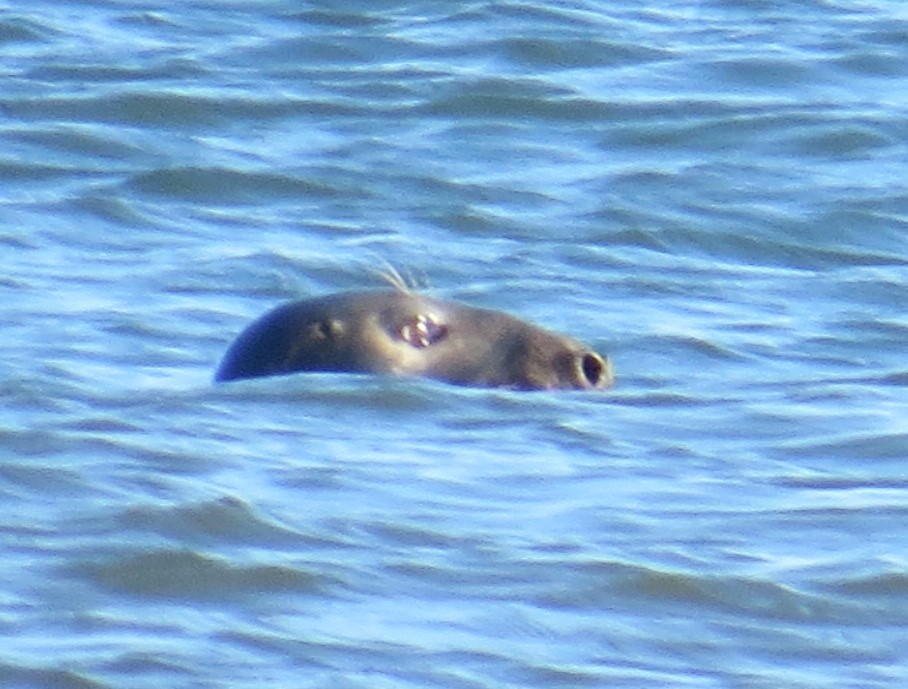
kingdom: Animalia
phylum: Chordata
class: Mammalia
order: Carnivora
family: Phocidae
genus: Halichoerus
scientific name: Halichoerus grypus
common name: Grey seal
